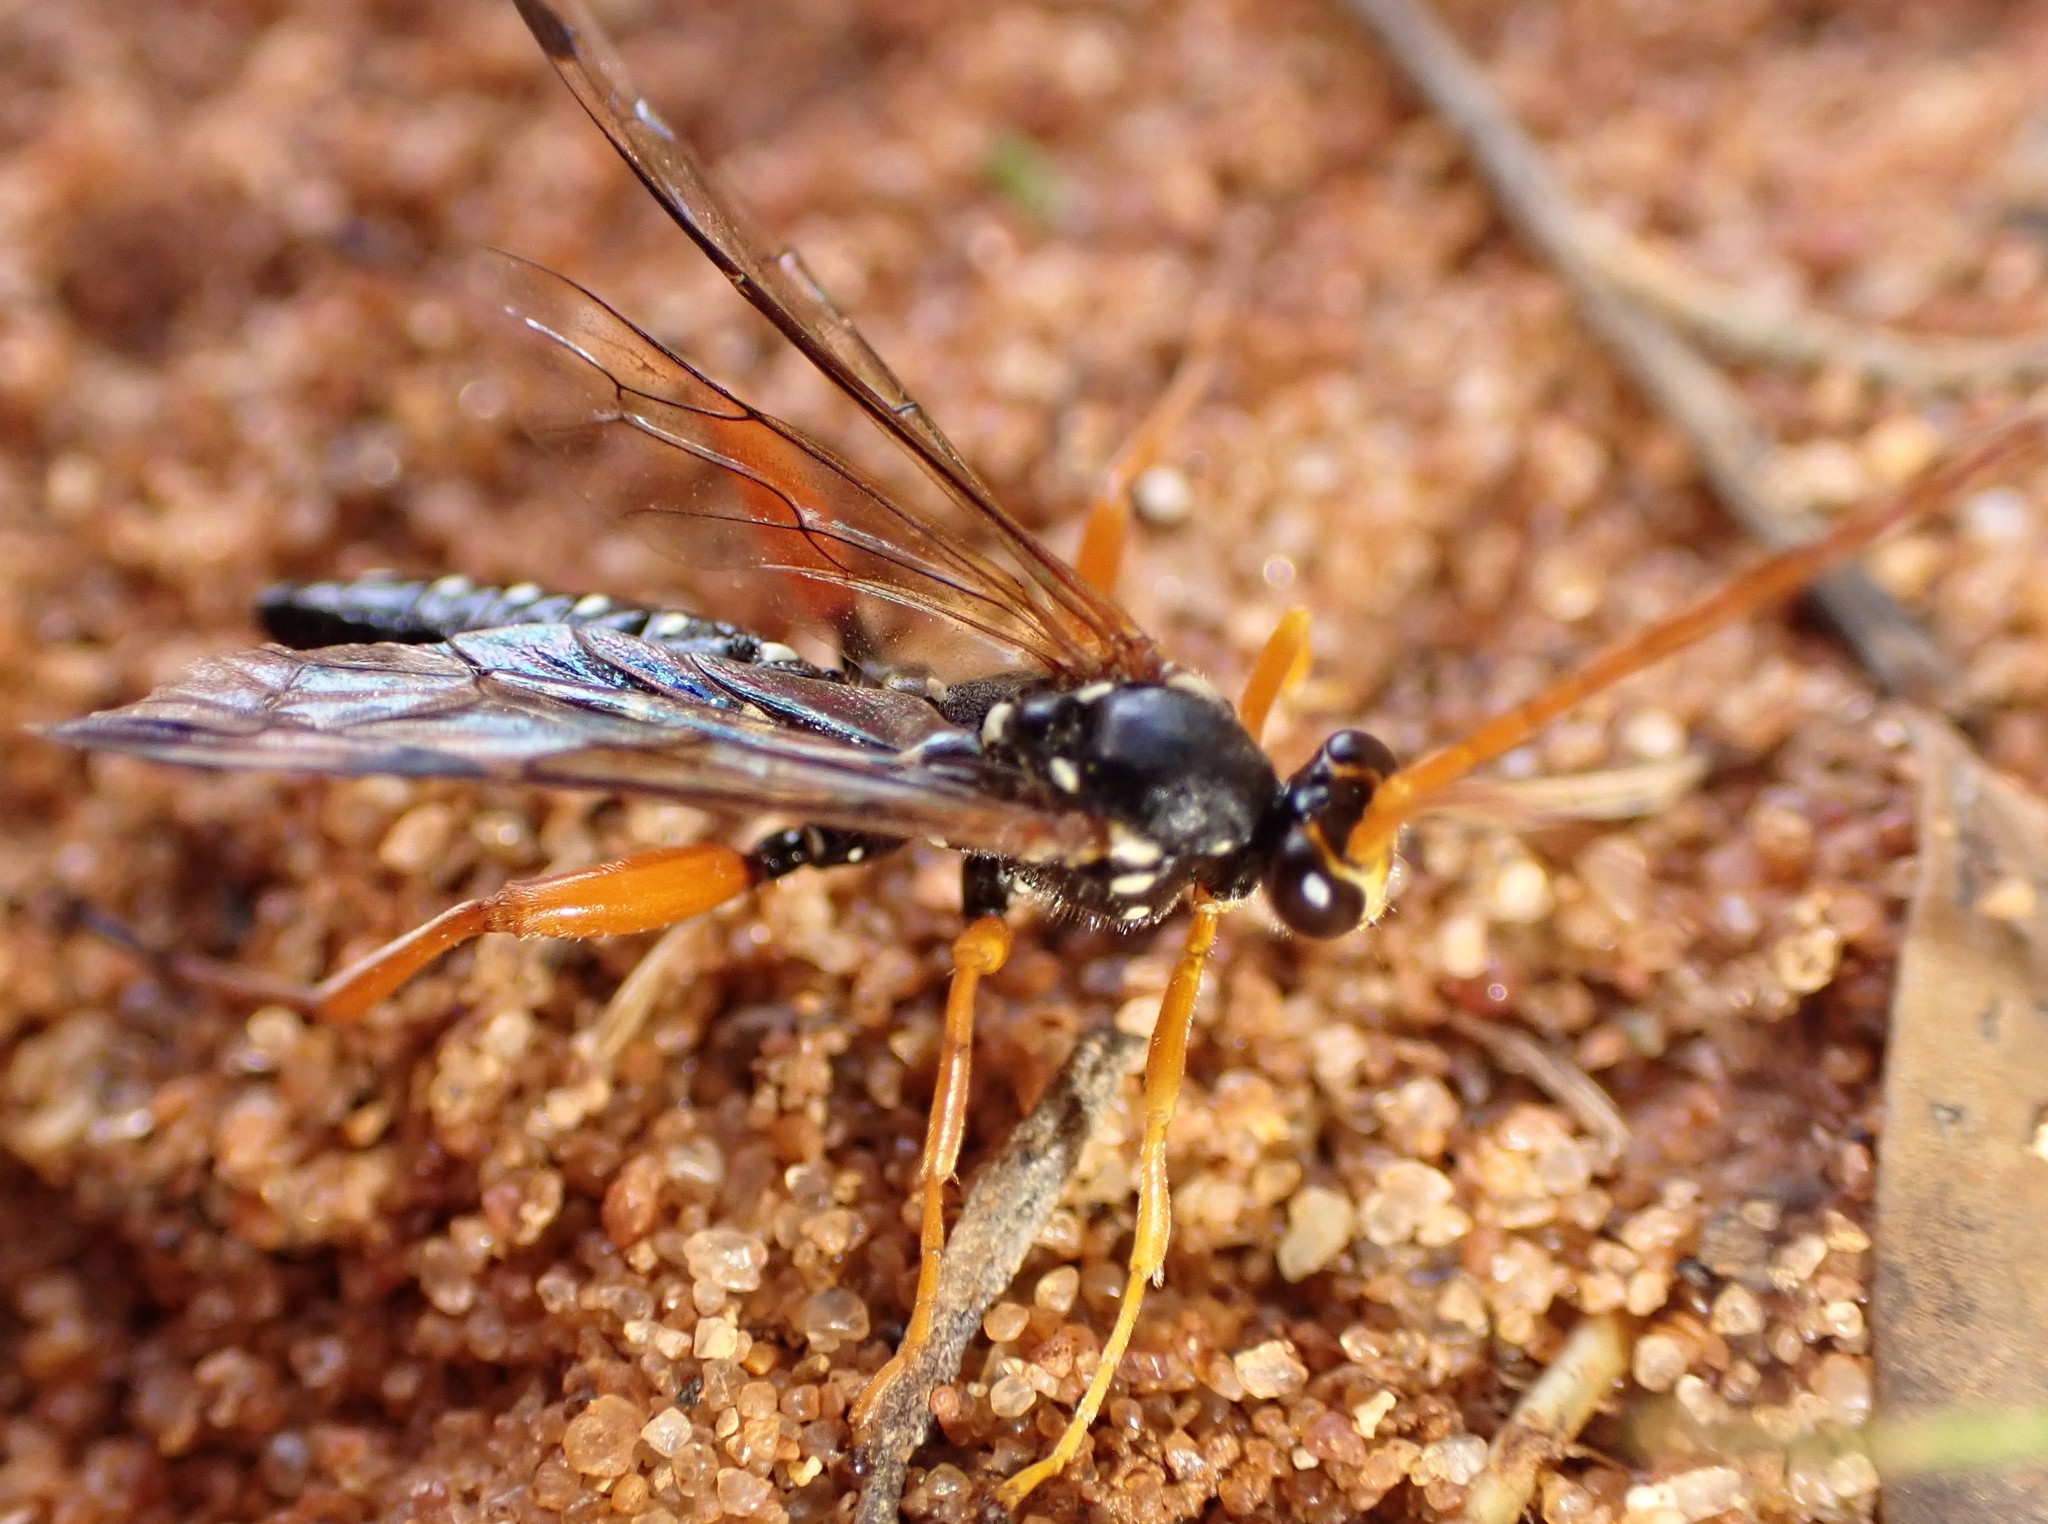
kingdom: Animalia
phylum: Arthropoda
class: Insecta
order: Hymenoptera
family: Ichneumonidae
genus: Echthromorpha
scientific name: Echthromorpha intricatoria
